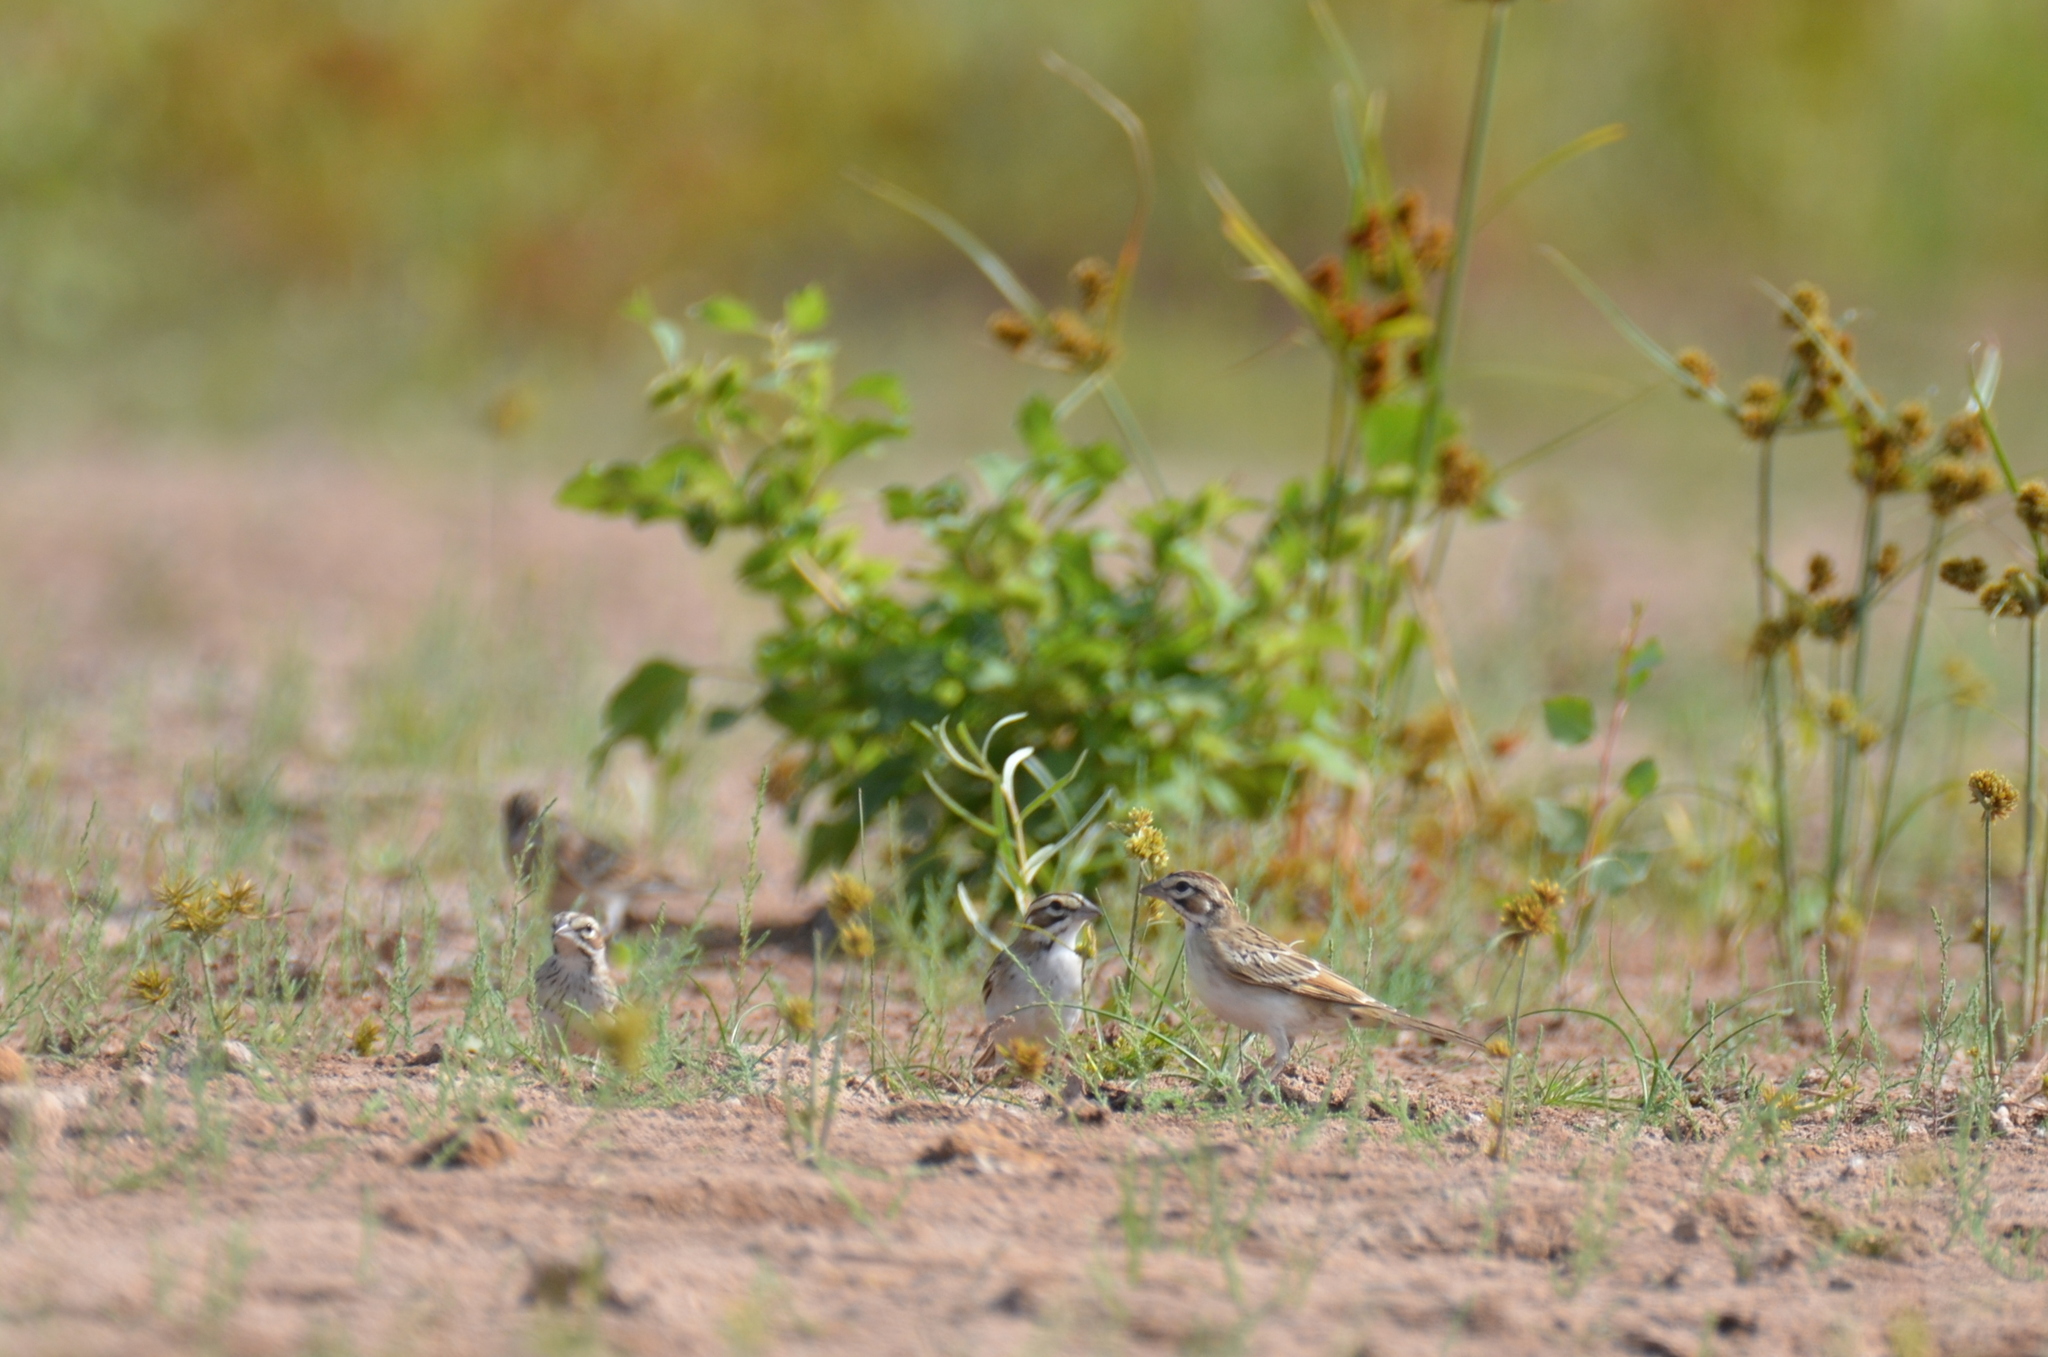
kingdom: Animalia
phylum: Chordata
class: Aves
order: Passeriformes
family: Passerellidae
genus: Chondestes
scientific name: Chondestes grammacus
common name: Lark sparrow
